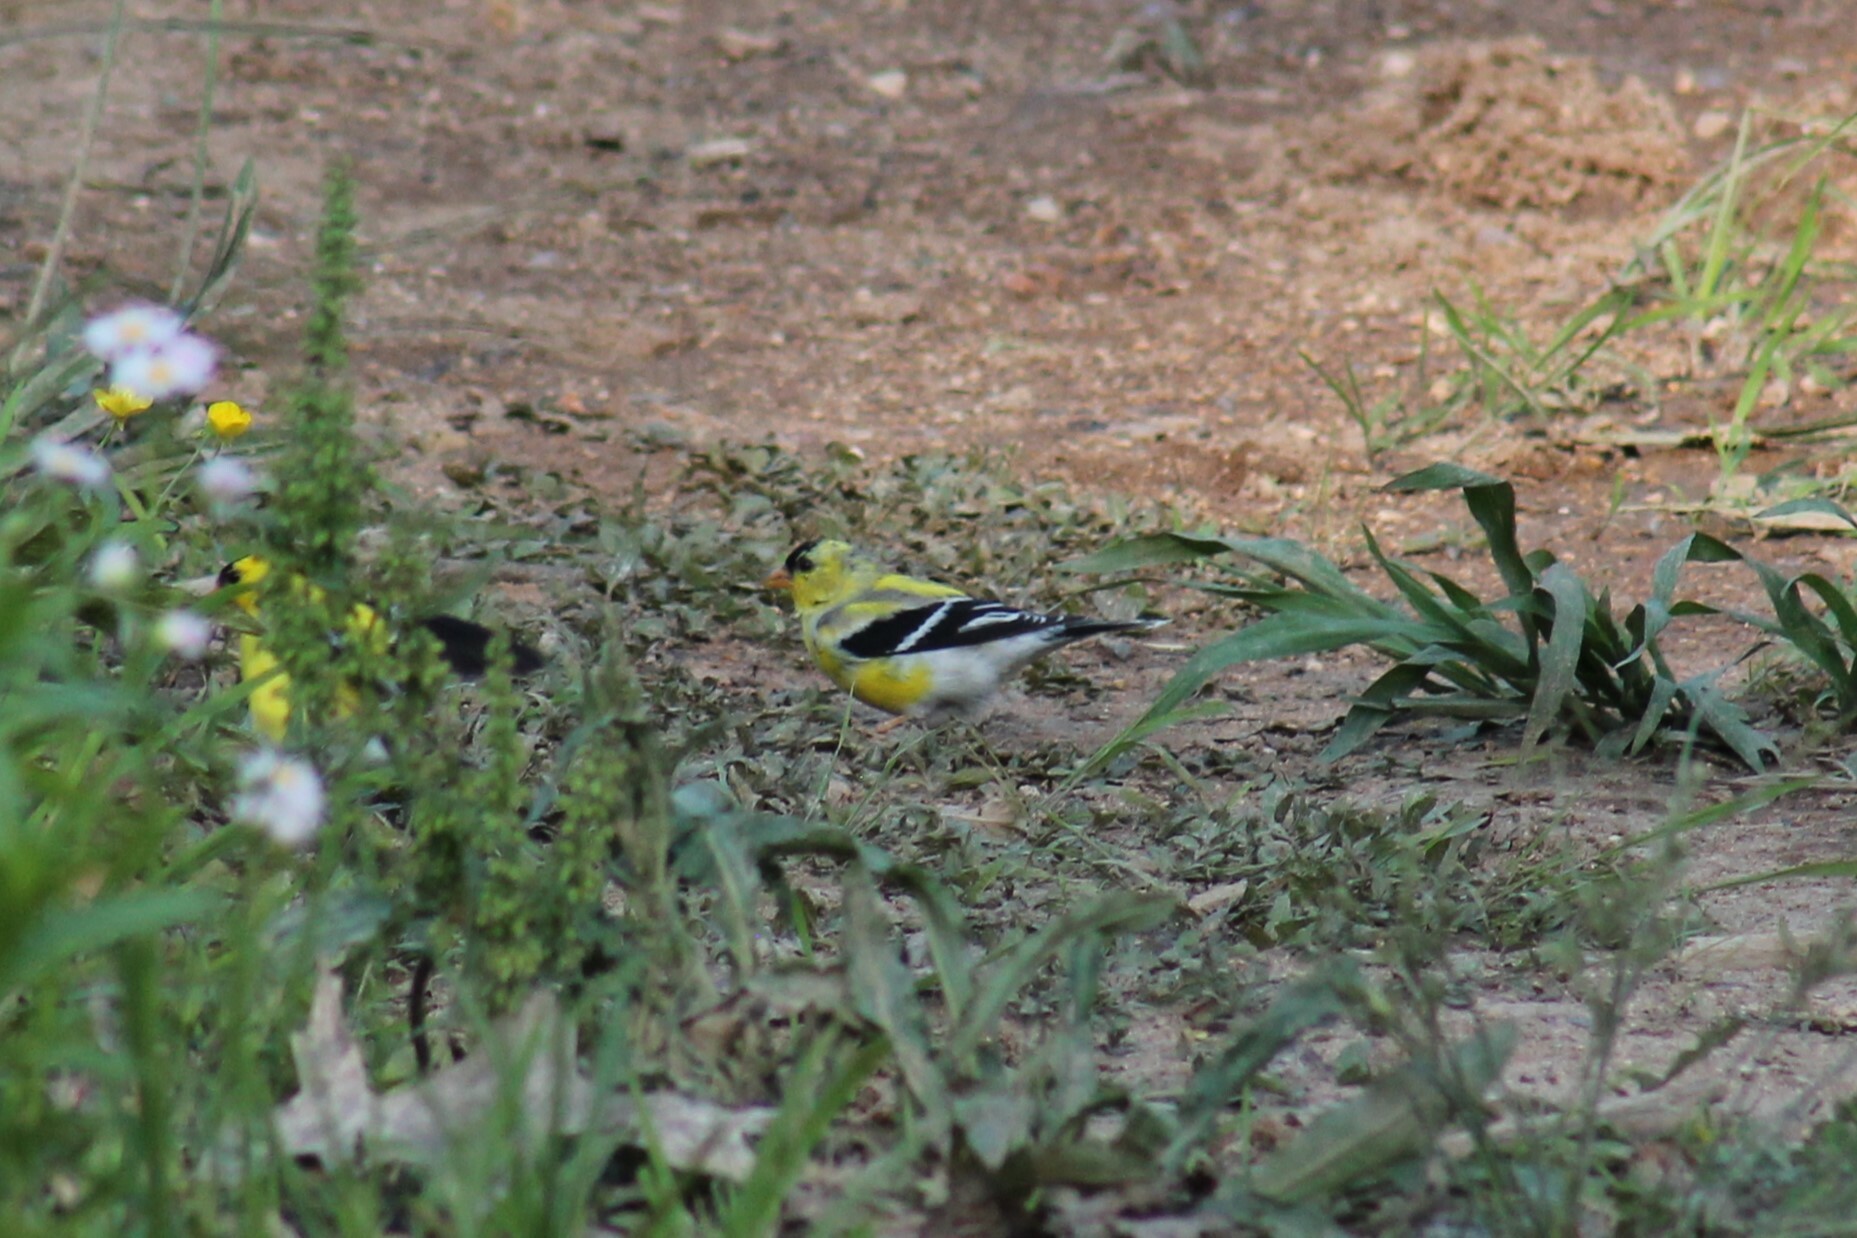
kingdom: Animalia
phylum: Chordata
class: Aves
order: Passeriformes
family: Fringillidae
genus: Spinus
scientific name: Spinus tristis
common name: American goldfinch
